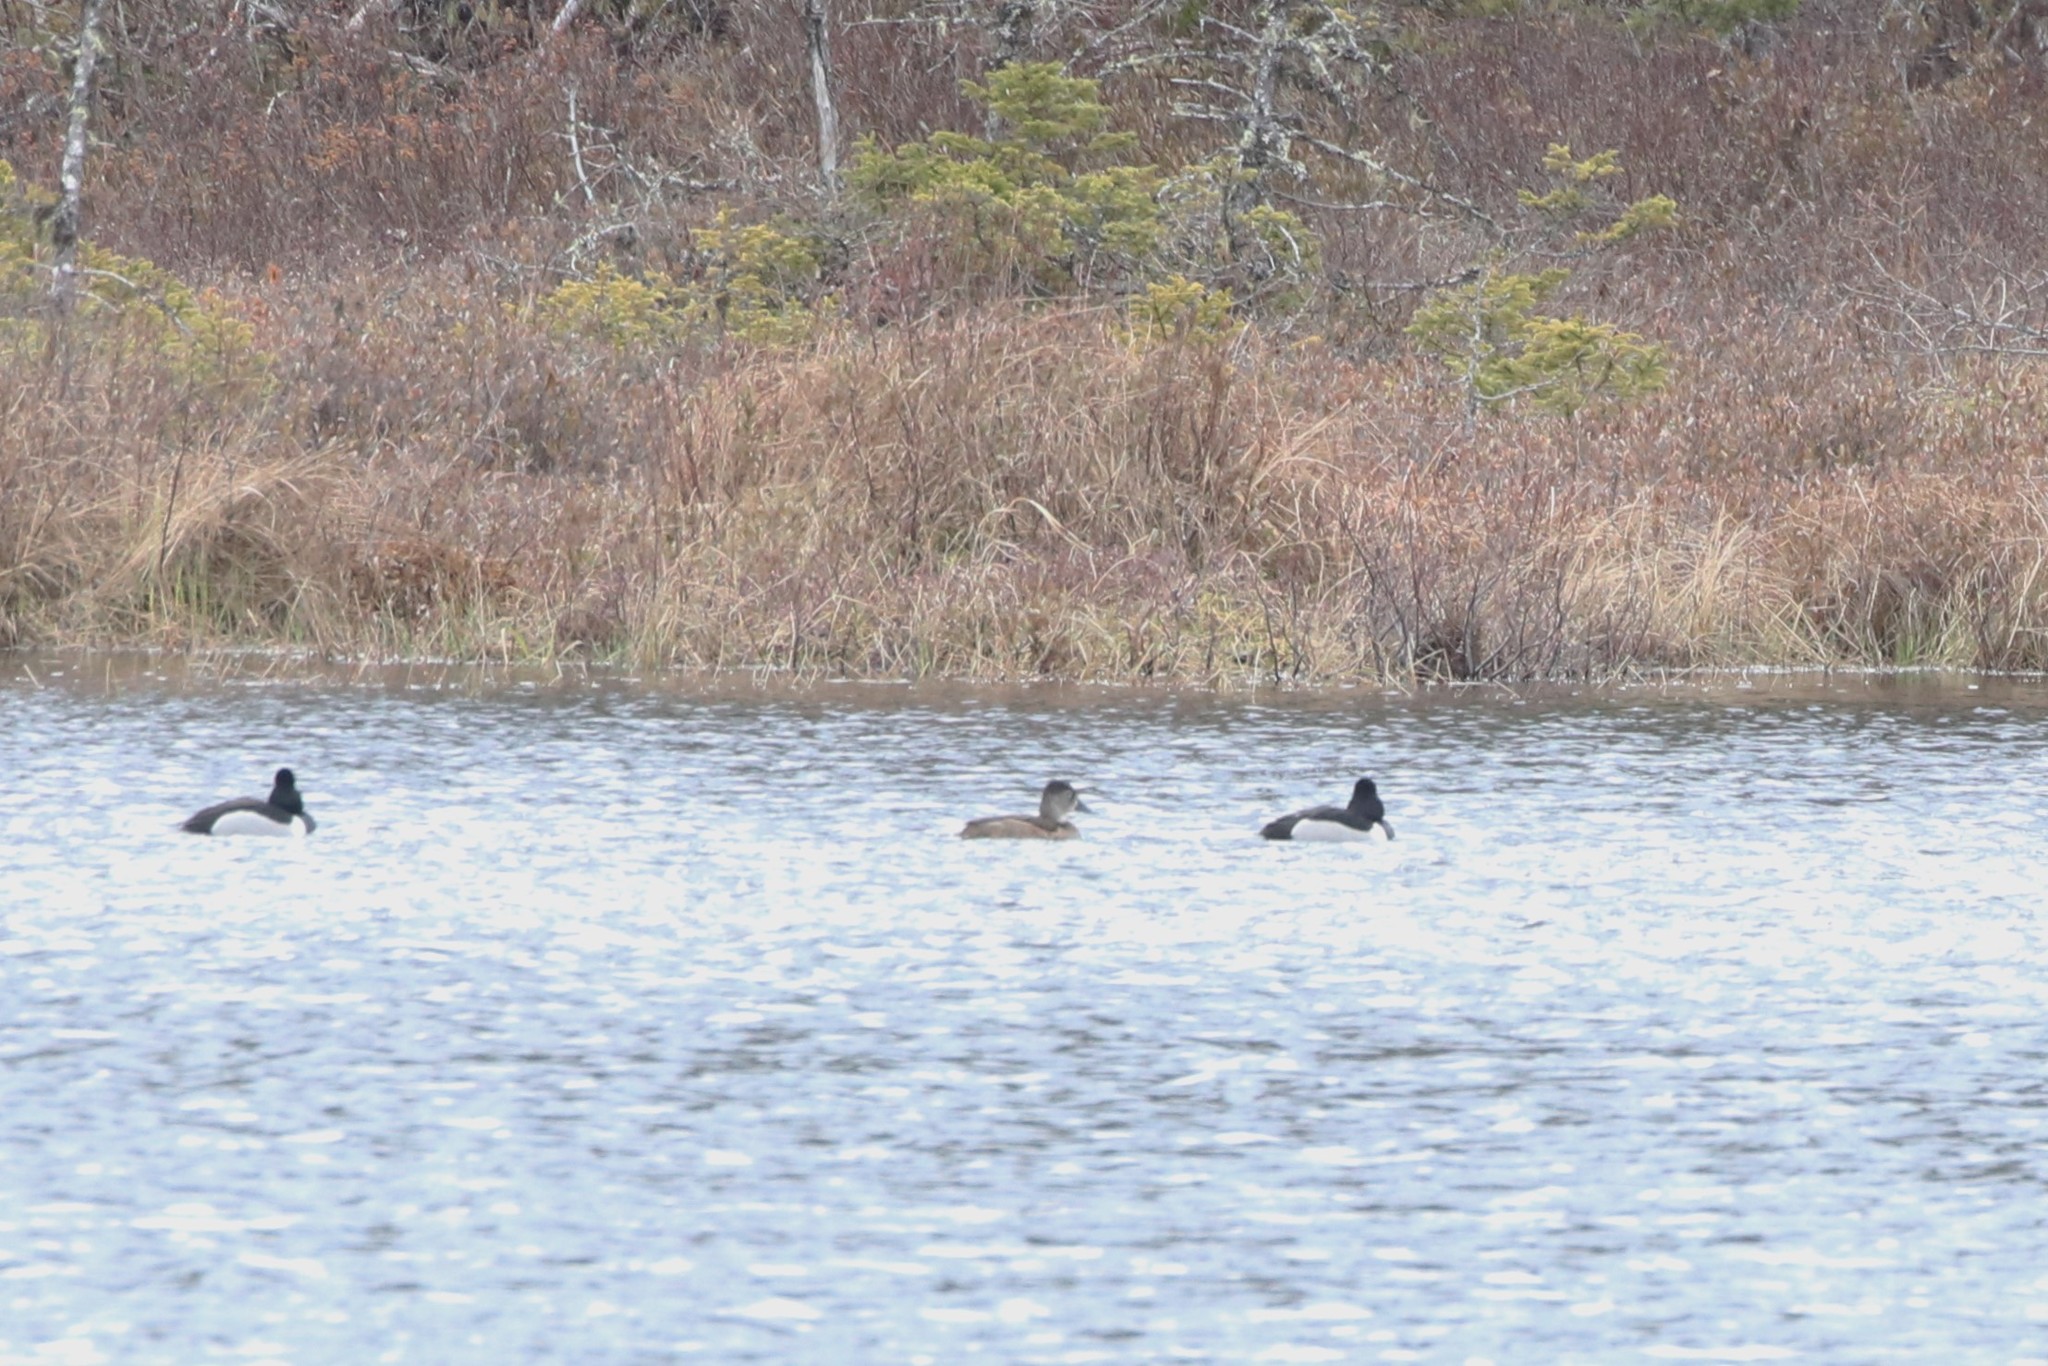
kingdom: Animalia
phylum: Chordata
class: Aves
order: Anseriformes
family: Anatidae
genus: Aythya
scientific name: Aythya collaris
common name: Ring-necked duck
